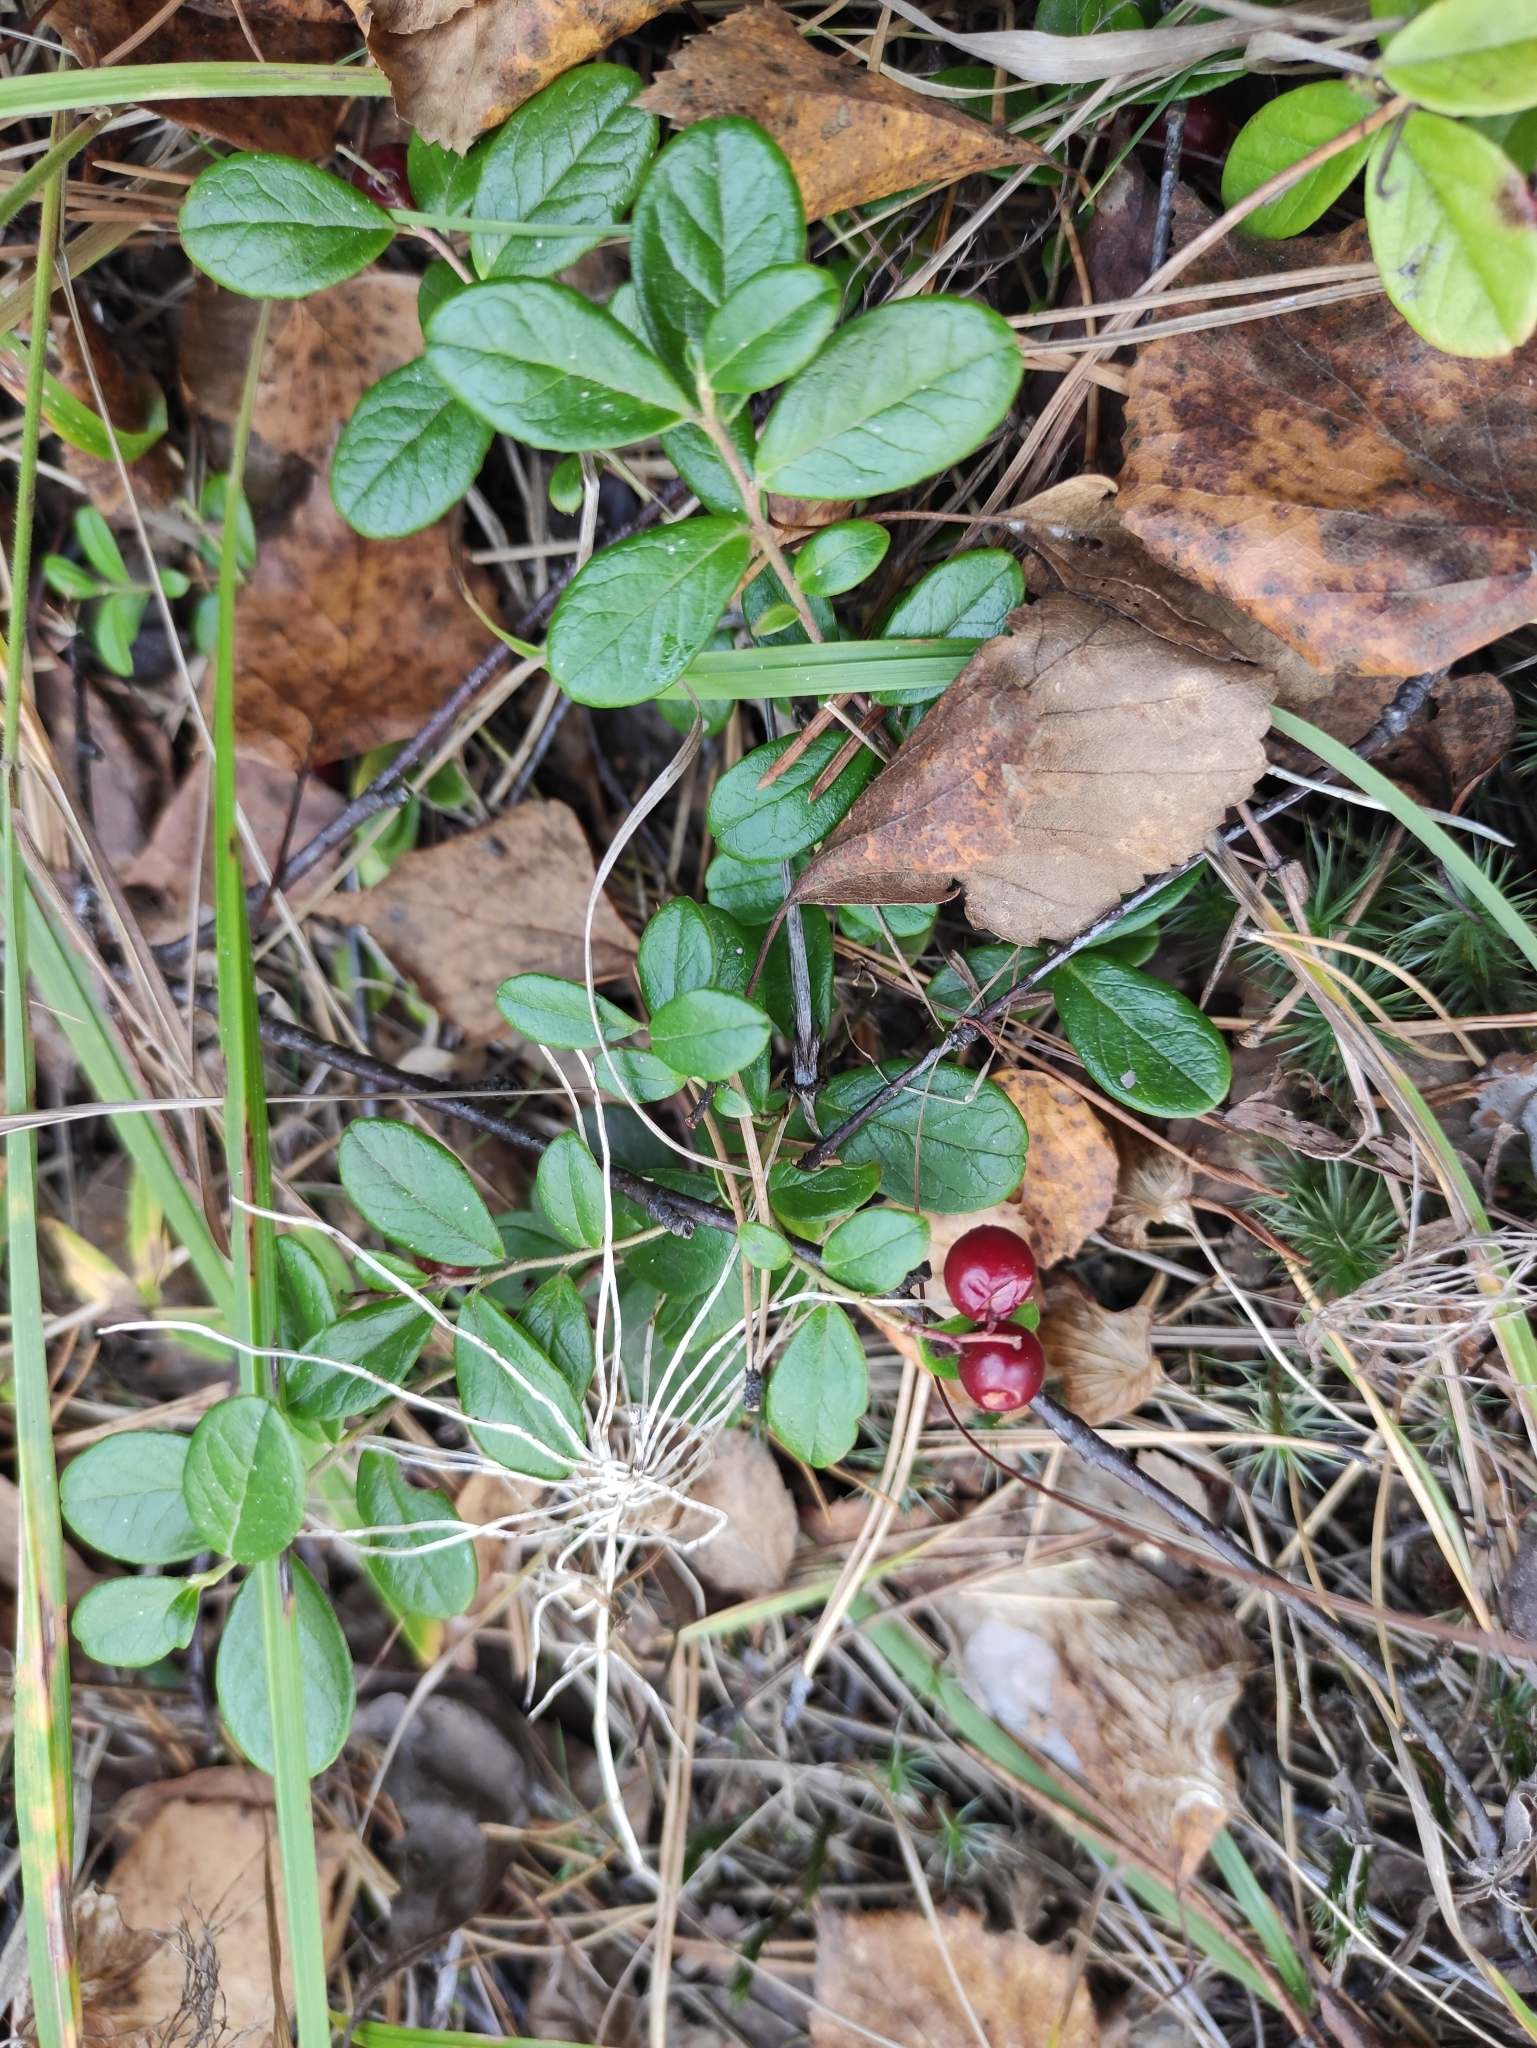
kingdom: Plantae
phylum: Tracheophyta
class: Magnoliopsida
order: Ericales
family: Ericaceae
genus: Vaccinium
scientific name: Vaccinium vitis-idaea
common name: Cowberry
